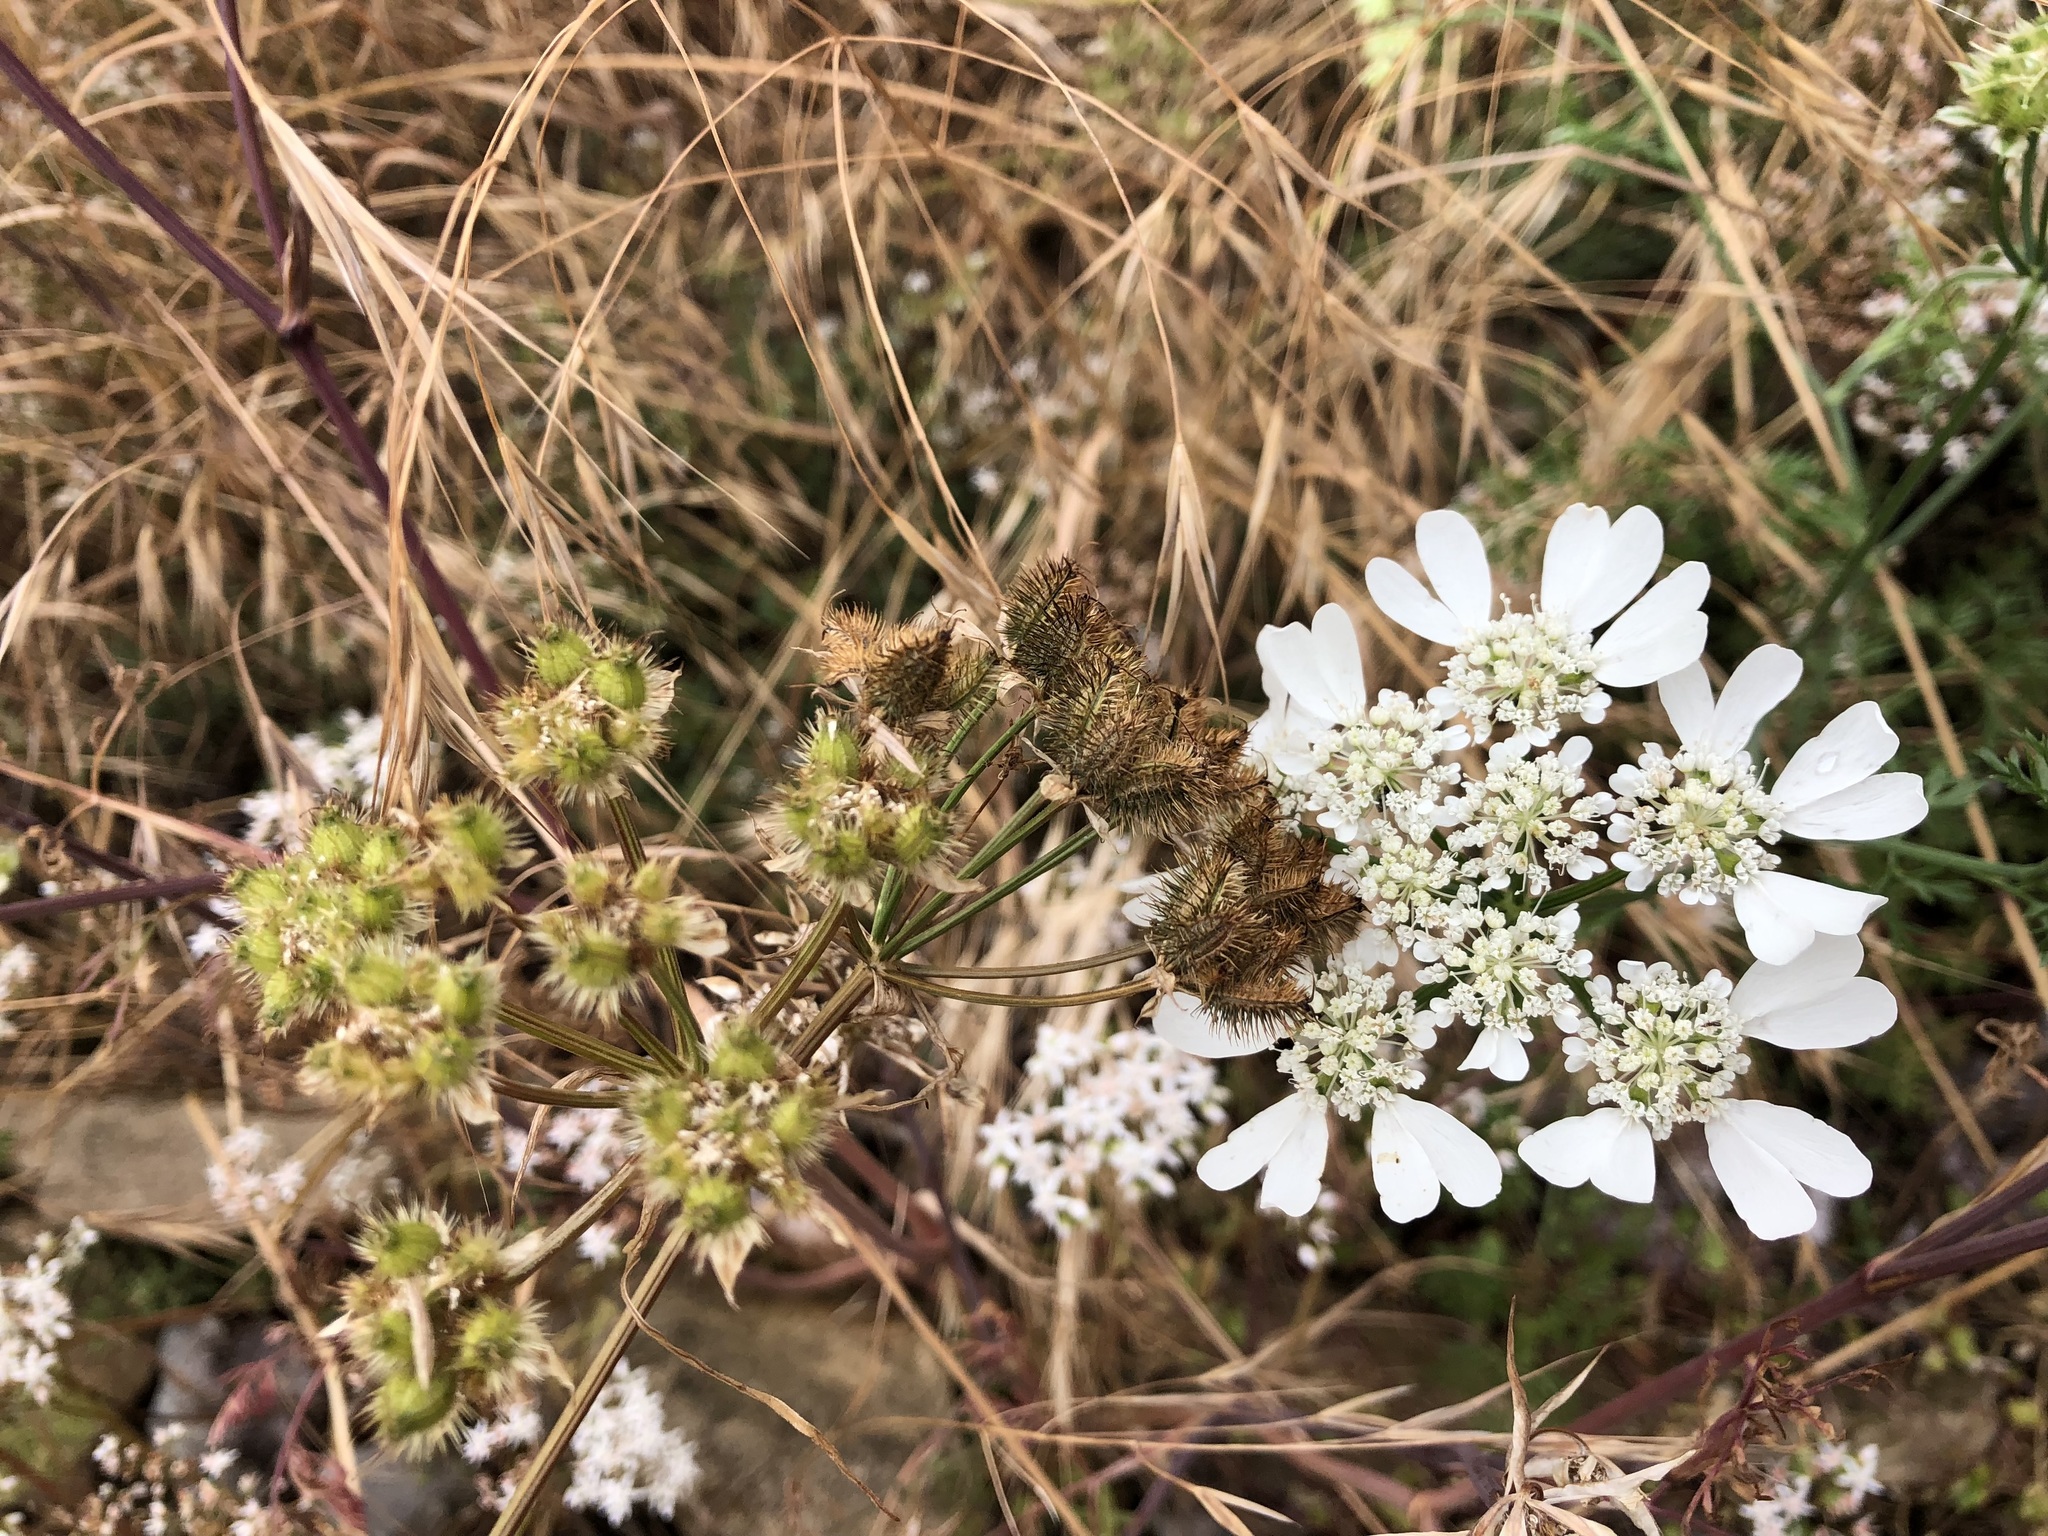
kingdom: Plantae
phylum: Tracheophyta
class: Magnoliopsida
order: Apiales
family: Apiaceae
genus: Orlaya
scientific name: Orlaya grandiflora
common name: White lace flower
